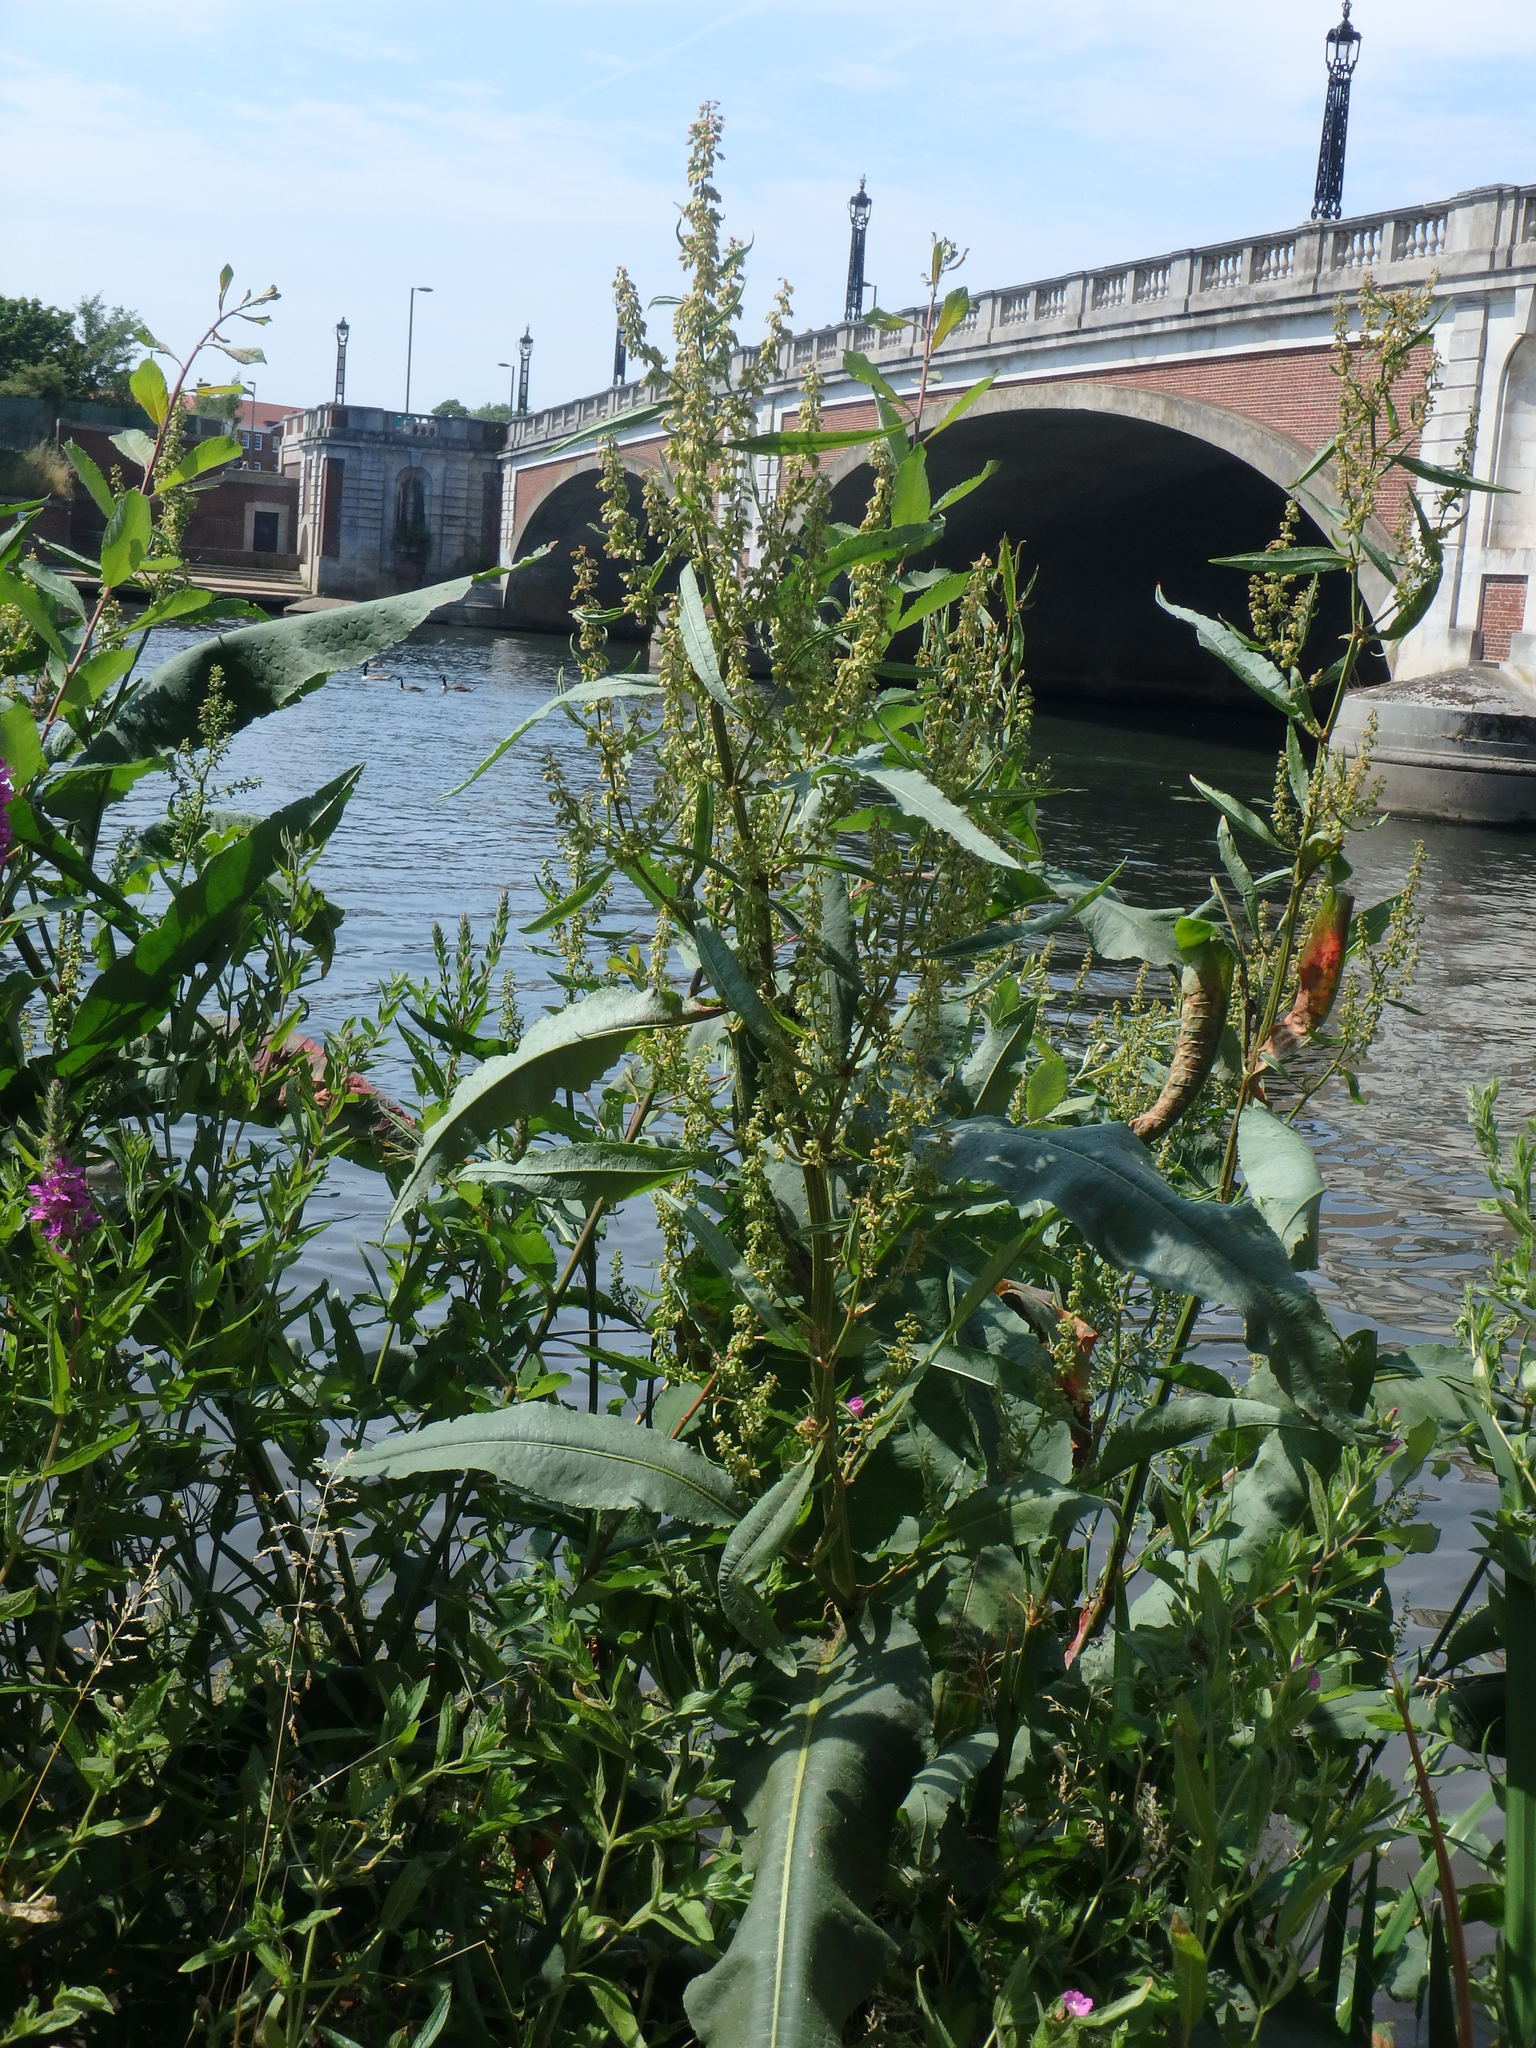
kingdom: Plantae
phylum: Tracheophyta
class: Magnoliopsida
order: Caryophyllales
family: Polygonaceae
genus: Rumex
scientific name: Rumex hydrolapathum
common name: Water dock
